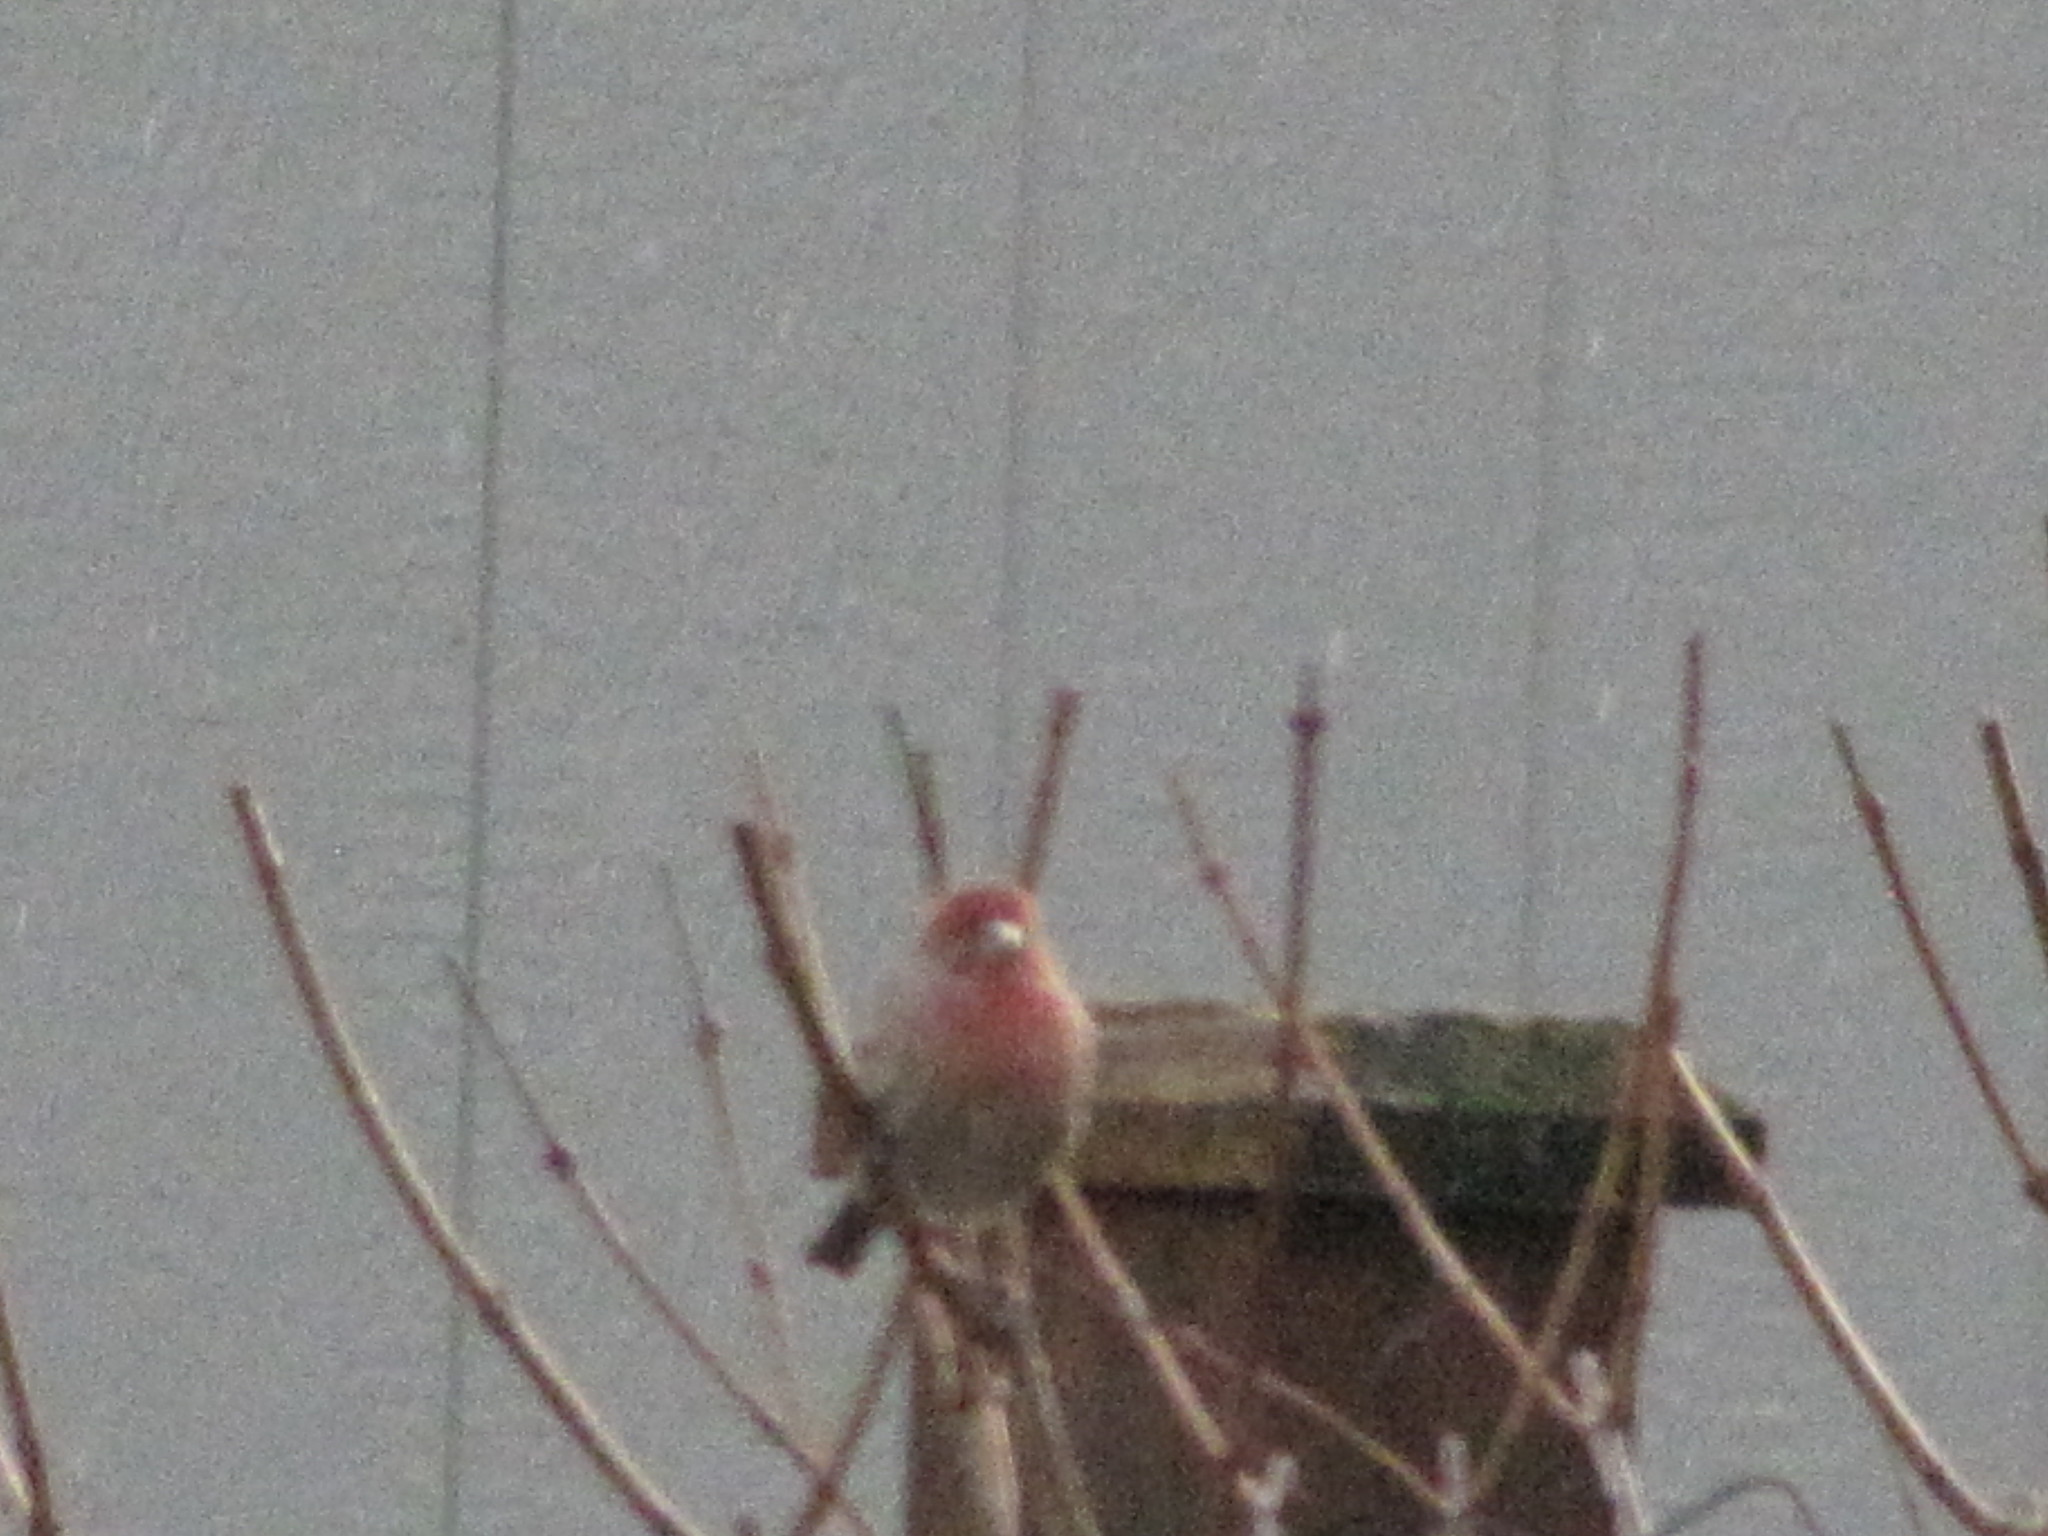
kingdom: Animalia
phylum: Chordata
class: Aves
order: Passeriformes
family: Fringillidae
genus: Haemorhous
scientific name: Haemorhous mexicanus
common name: House finch
